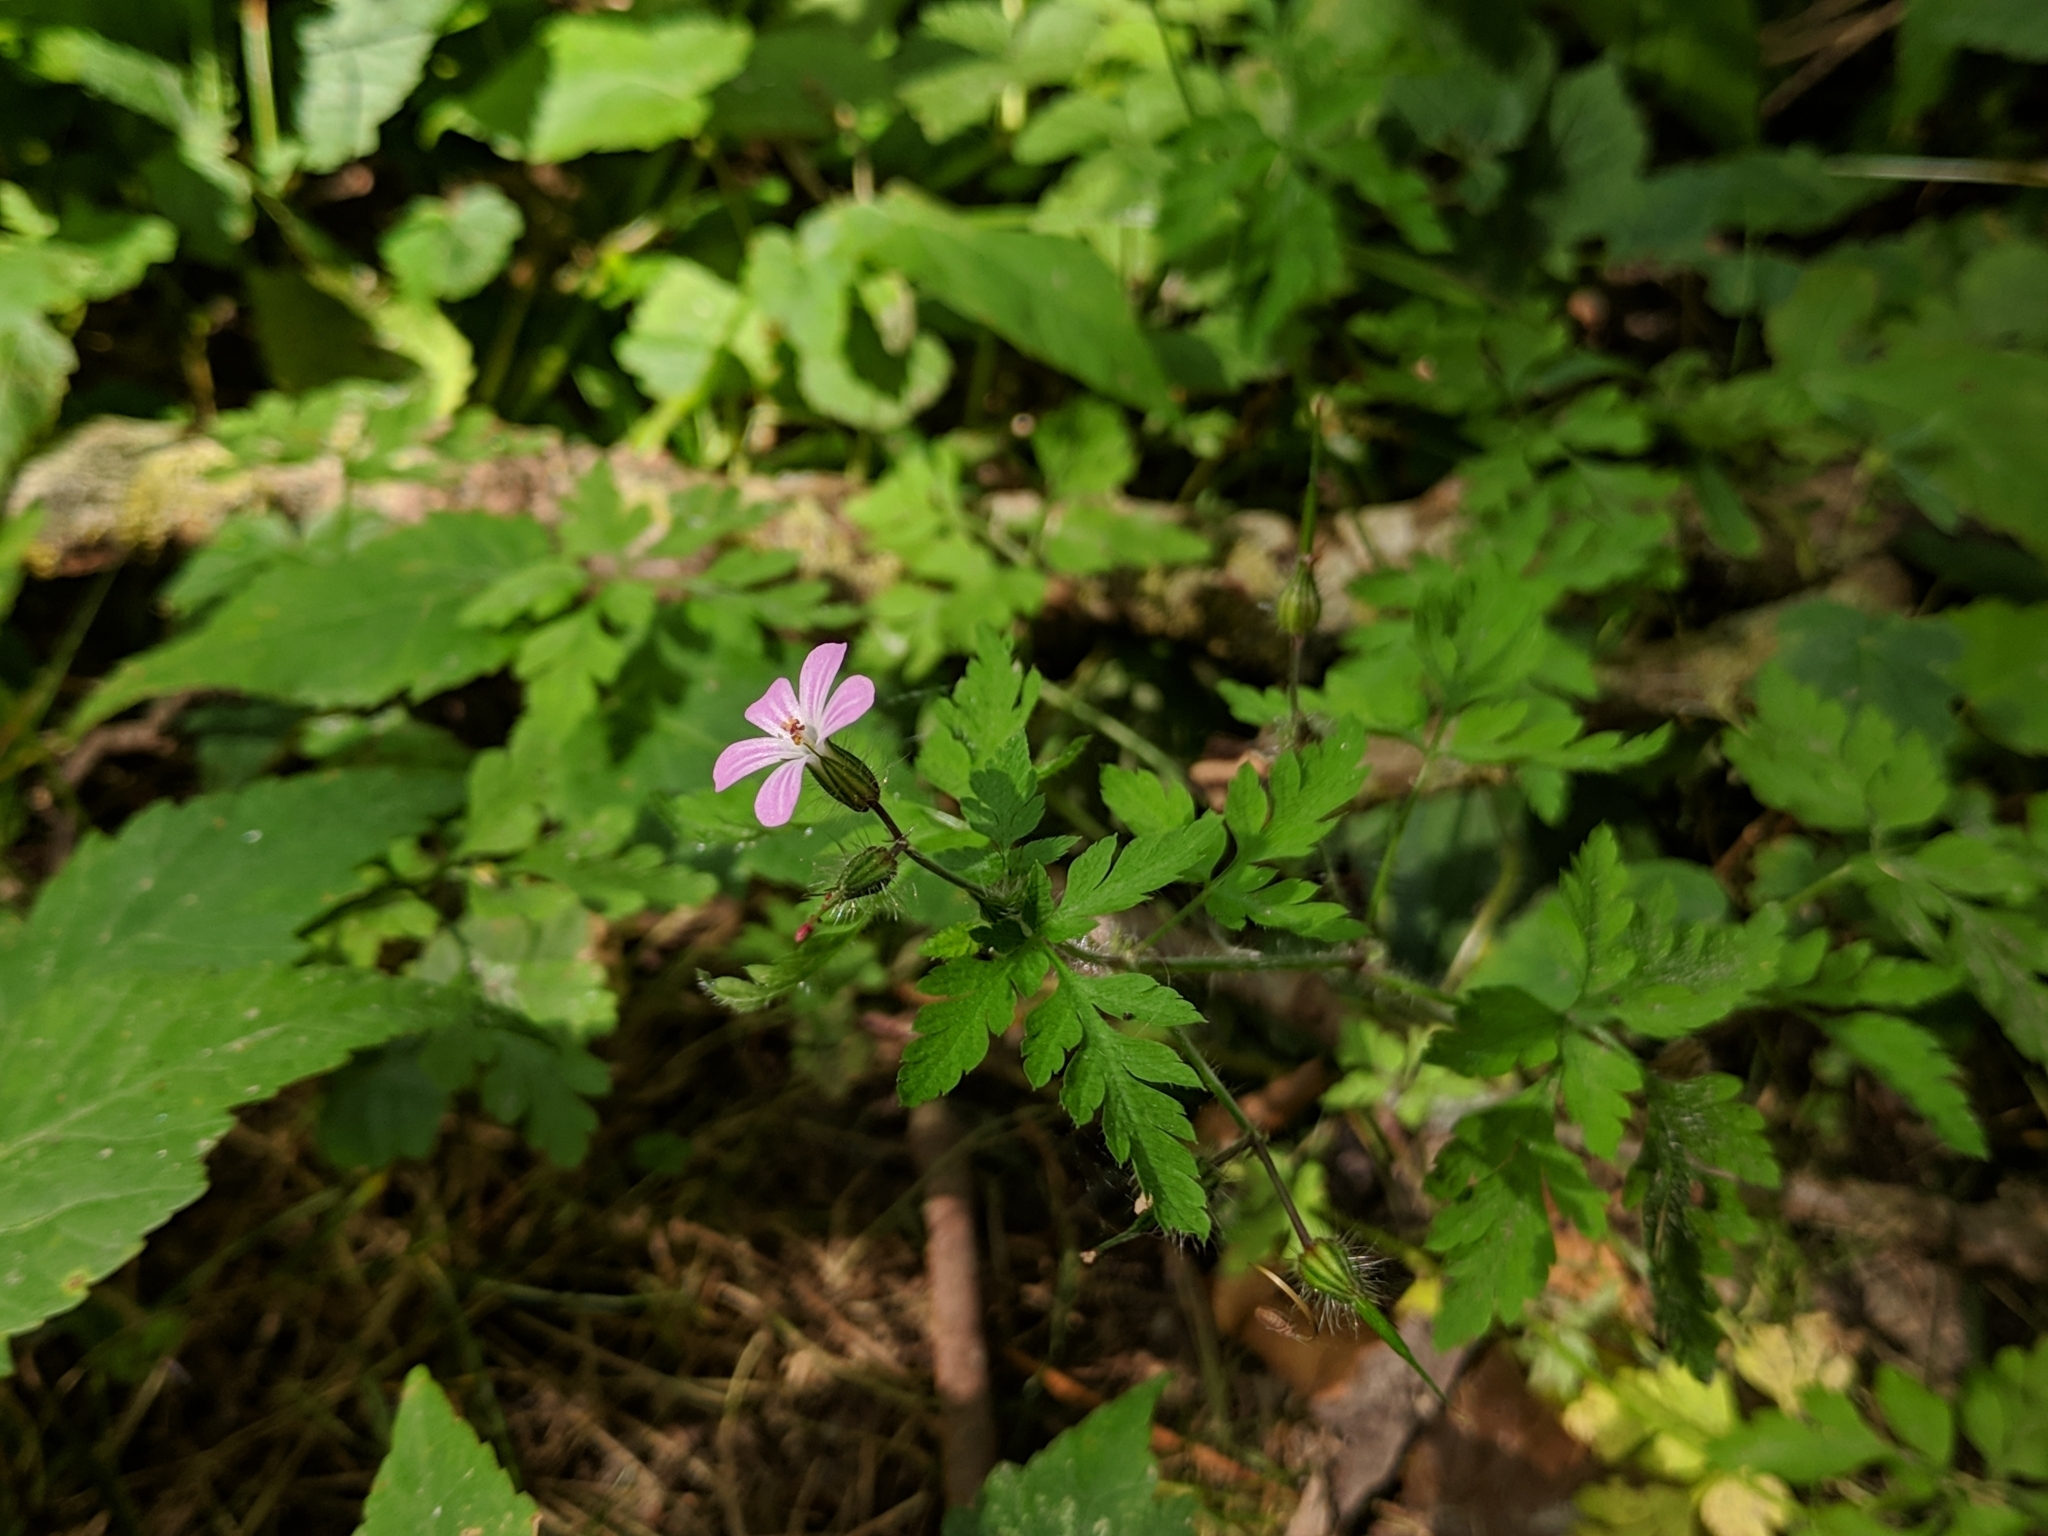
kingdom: Plantae
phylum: Tracheophyta
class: Magnoliopsida
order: Geraniales
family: Geraniaceae
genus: Geranium
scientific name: Geranium robertianum
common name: Herb-robert
